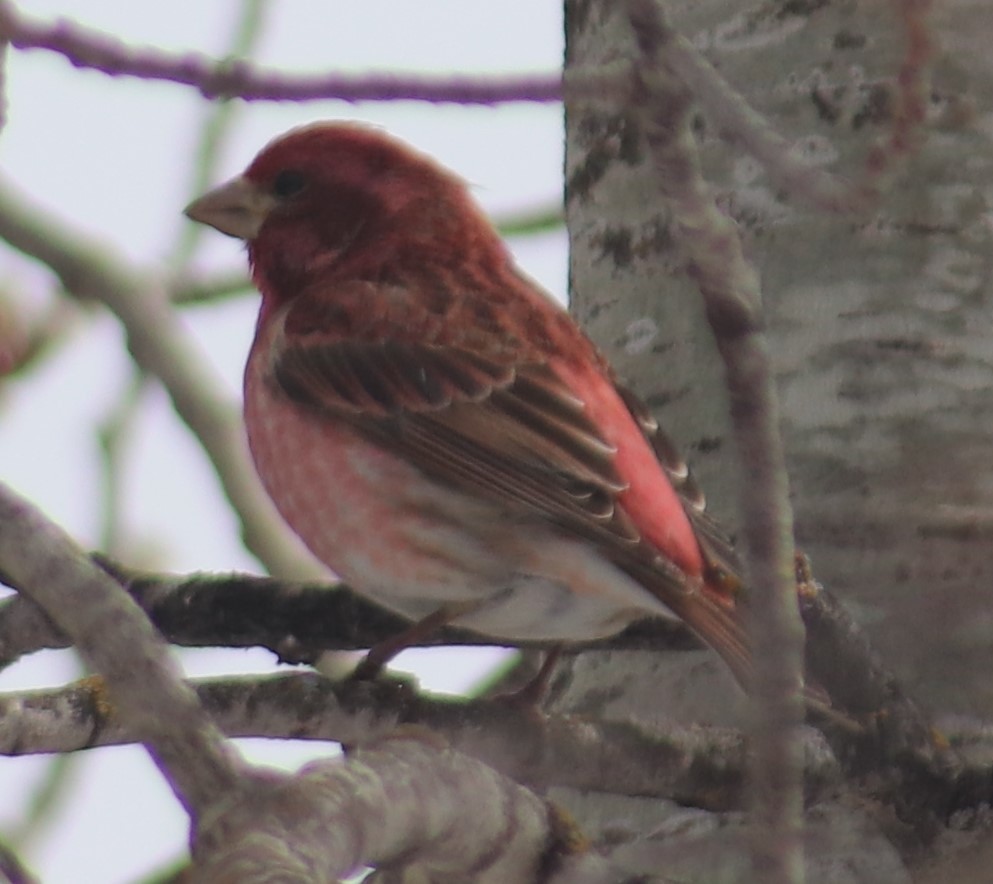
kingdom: Animalia
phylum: Chordata
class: Aves
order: Passeriformes
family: Fringillidae
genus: Haemorhous
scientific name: Haemorhous purpureus
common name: Purple finch
